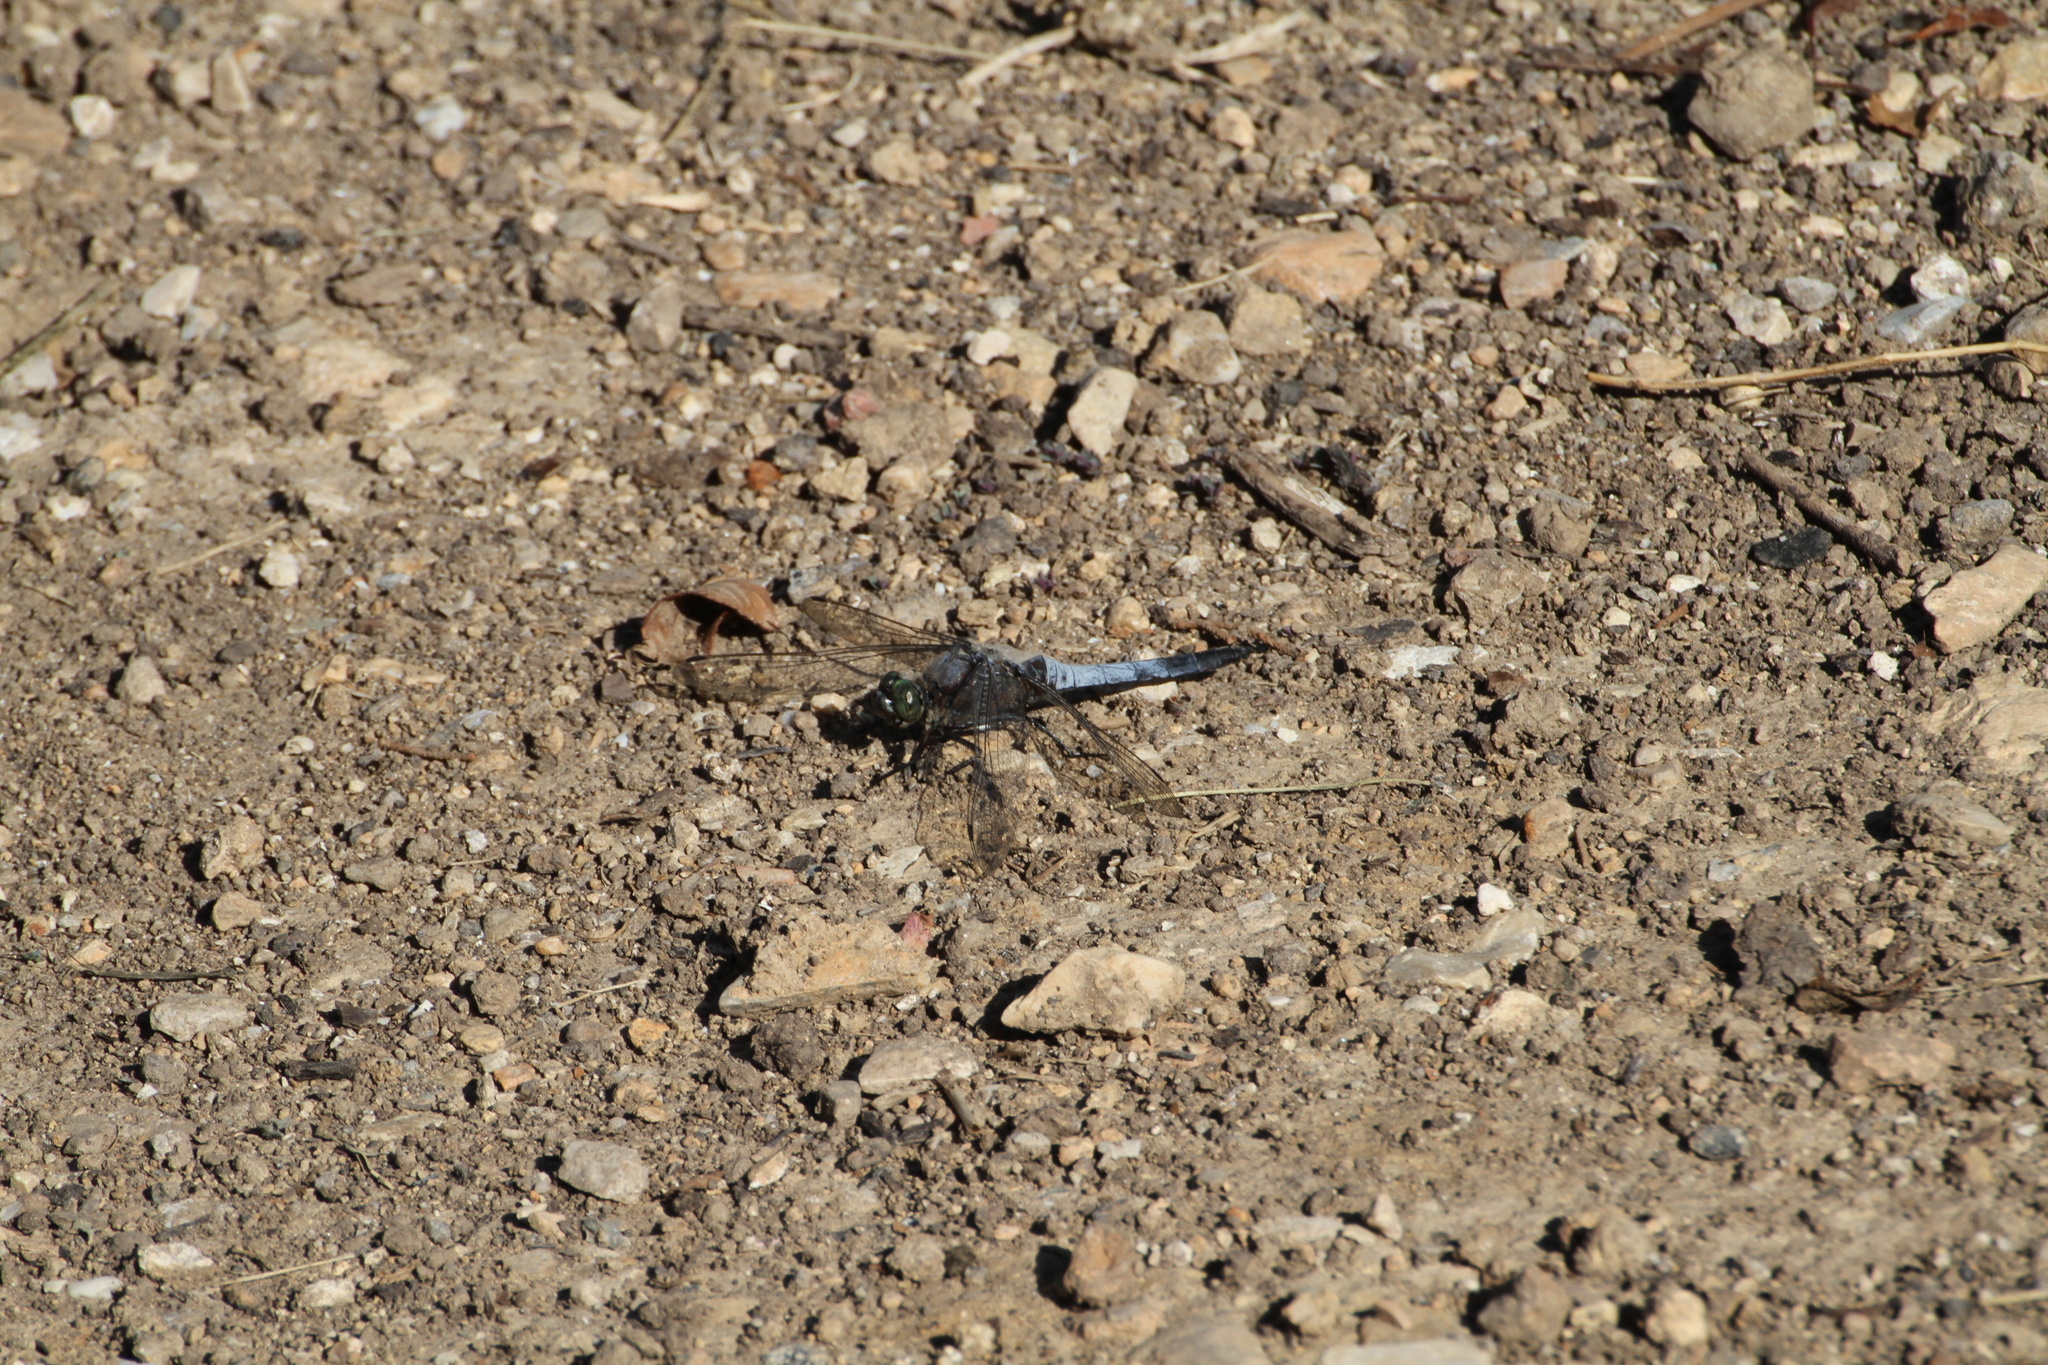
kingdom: Animalia
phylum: Arthropoda
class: Insecta
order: Odonata
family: Libellulidae
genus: Orthetrum
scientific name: Orthetrum cancellatum
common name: Black-tailed skimmer
